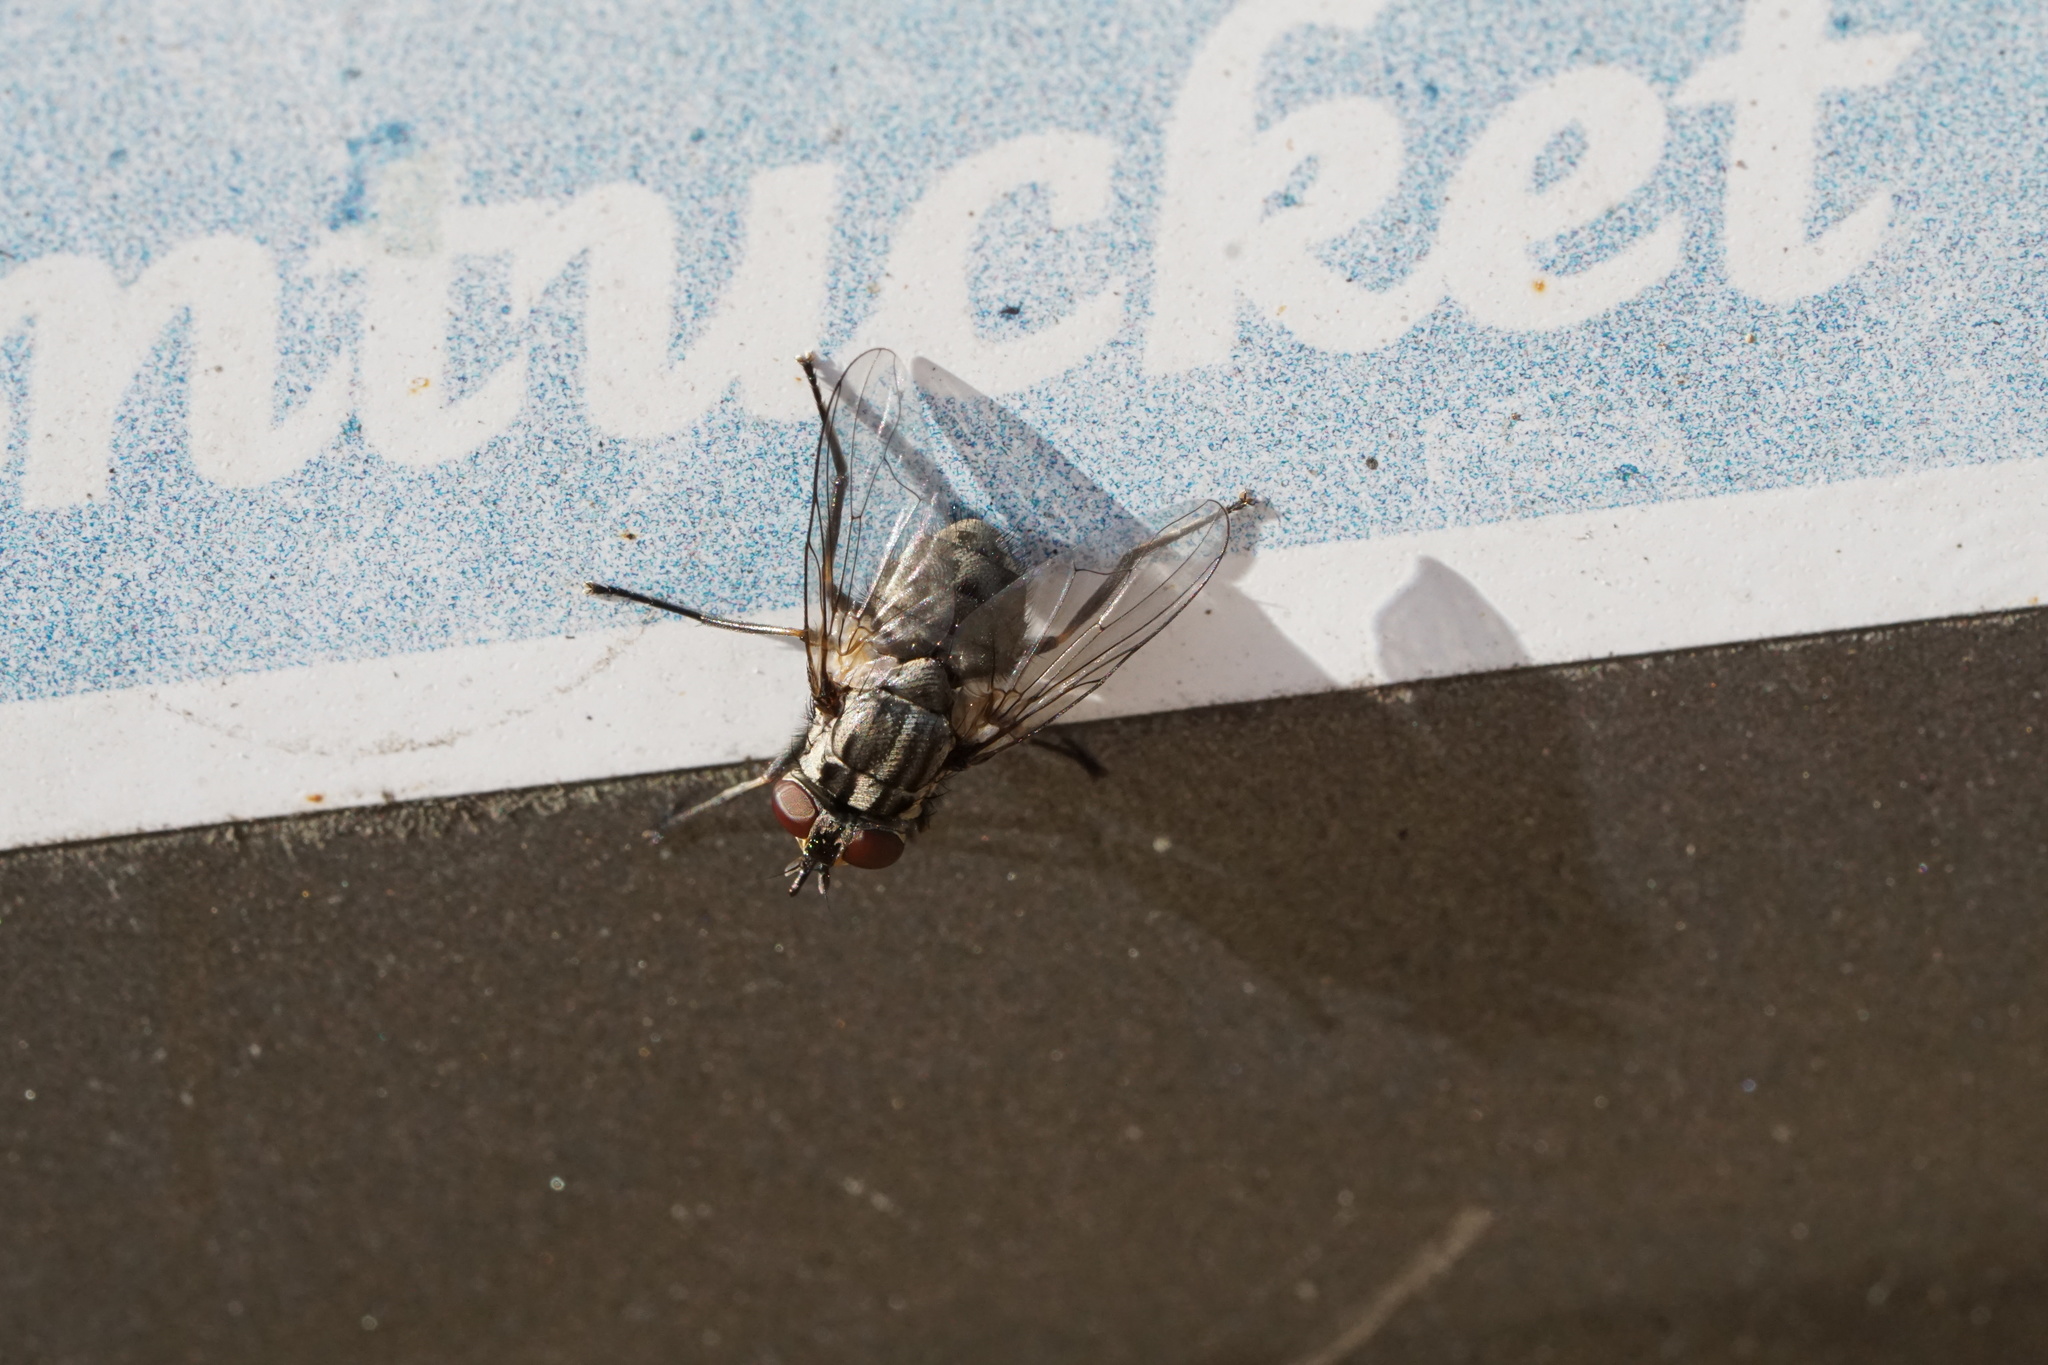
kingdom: Animalia
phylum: Arthropoda
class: Insecta
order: Diptera
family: Muscidae
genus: Stomoxys
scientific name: Stomoxys calcitrans
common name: Stable fly
